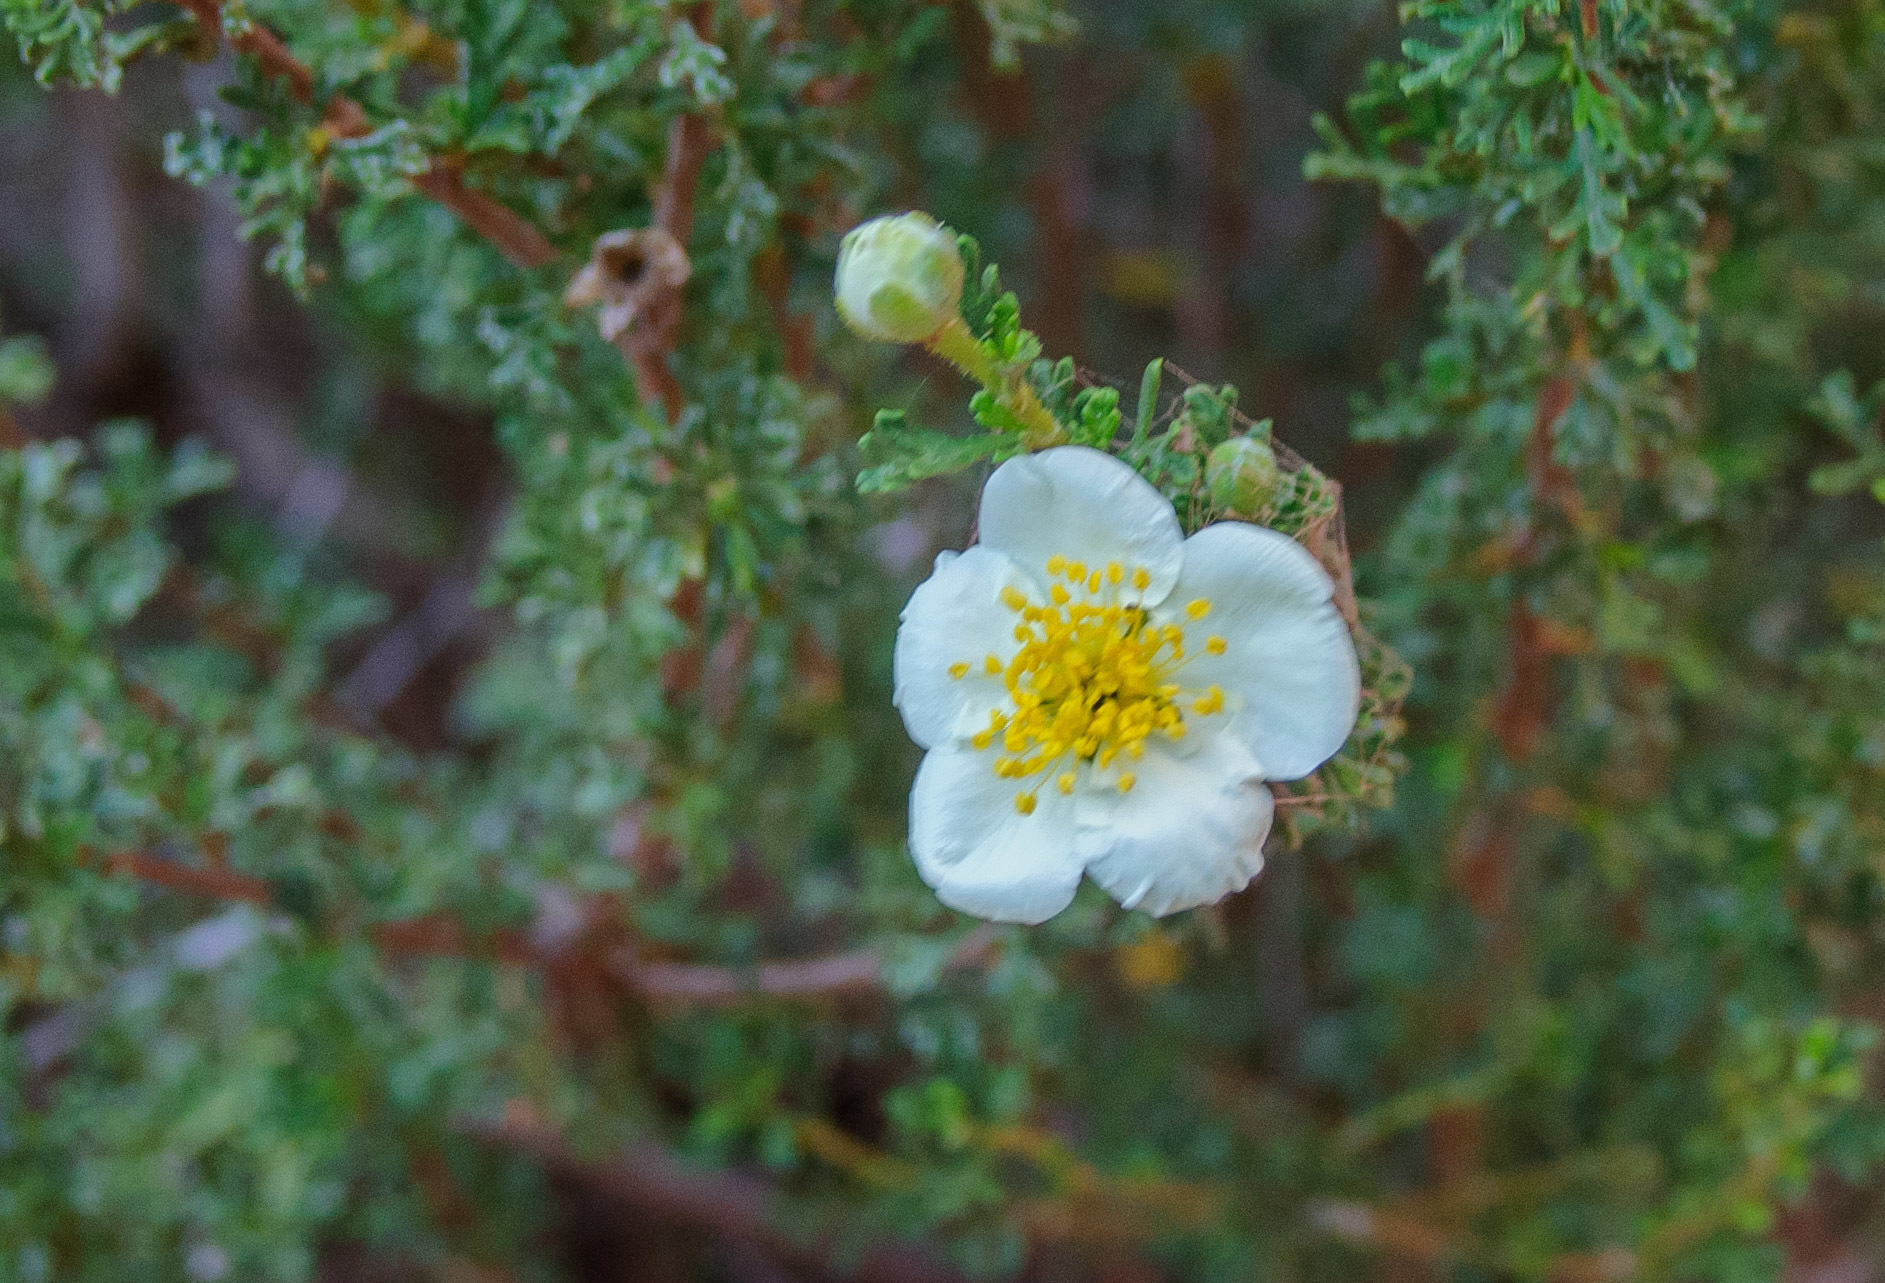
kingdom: Plantae
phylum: Tracheophyta
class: Magnoliopsida
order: Rosales
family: Rosaceae
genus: Purshia
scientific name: Purshia stansburiana
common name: Stansbury's cliffrose
